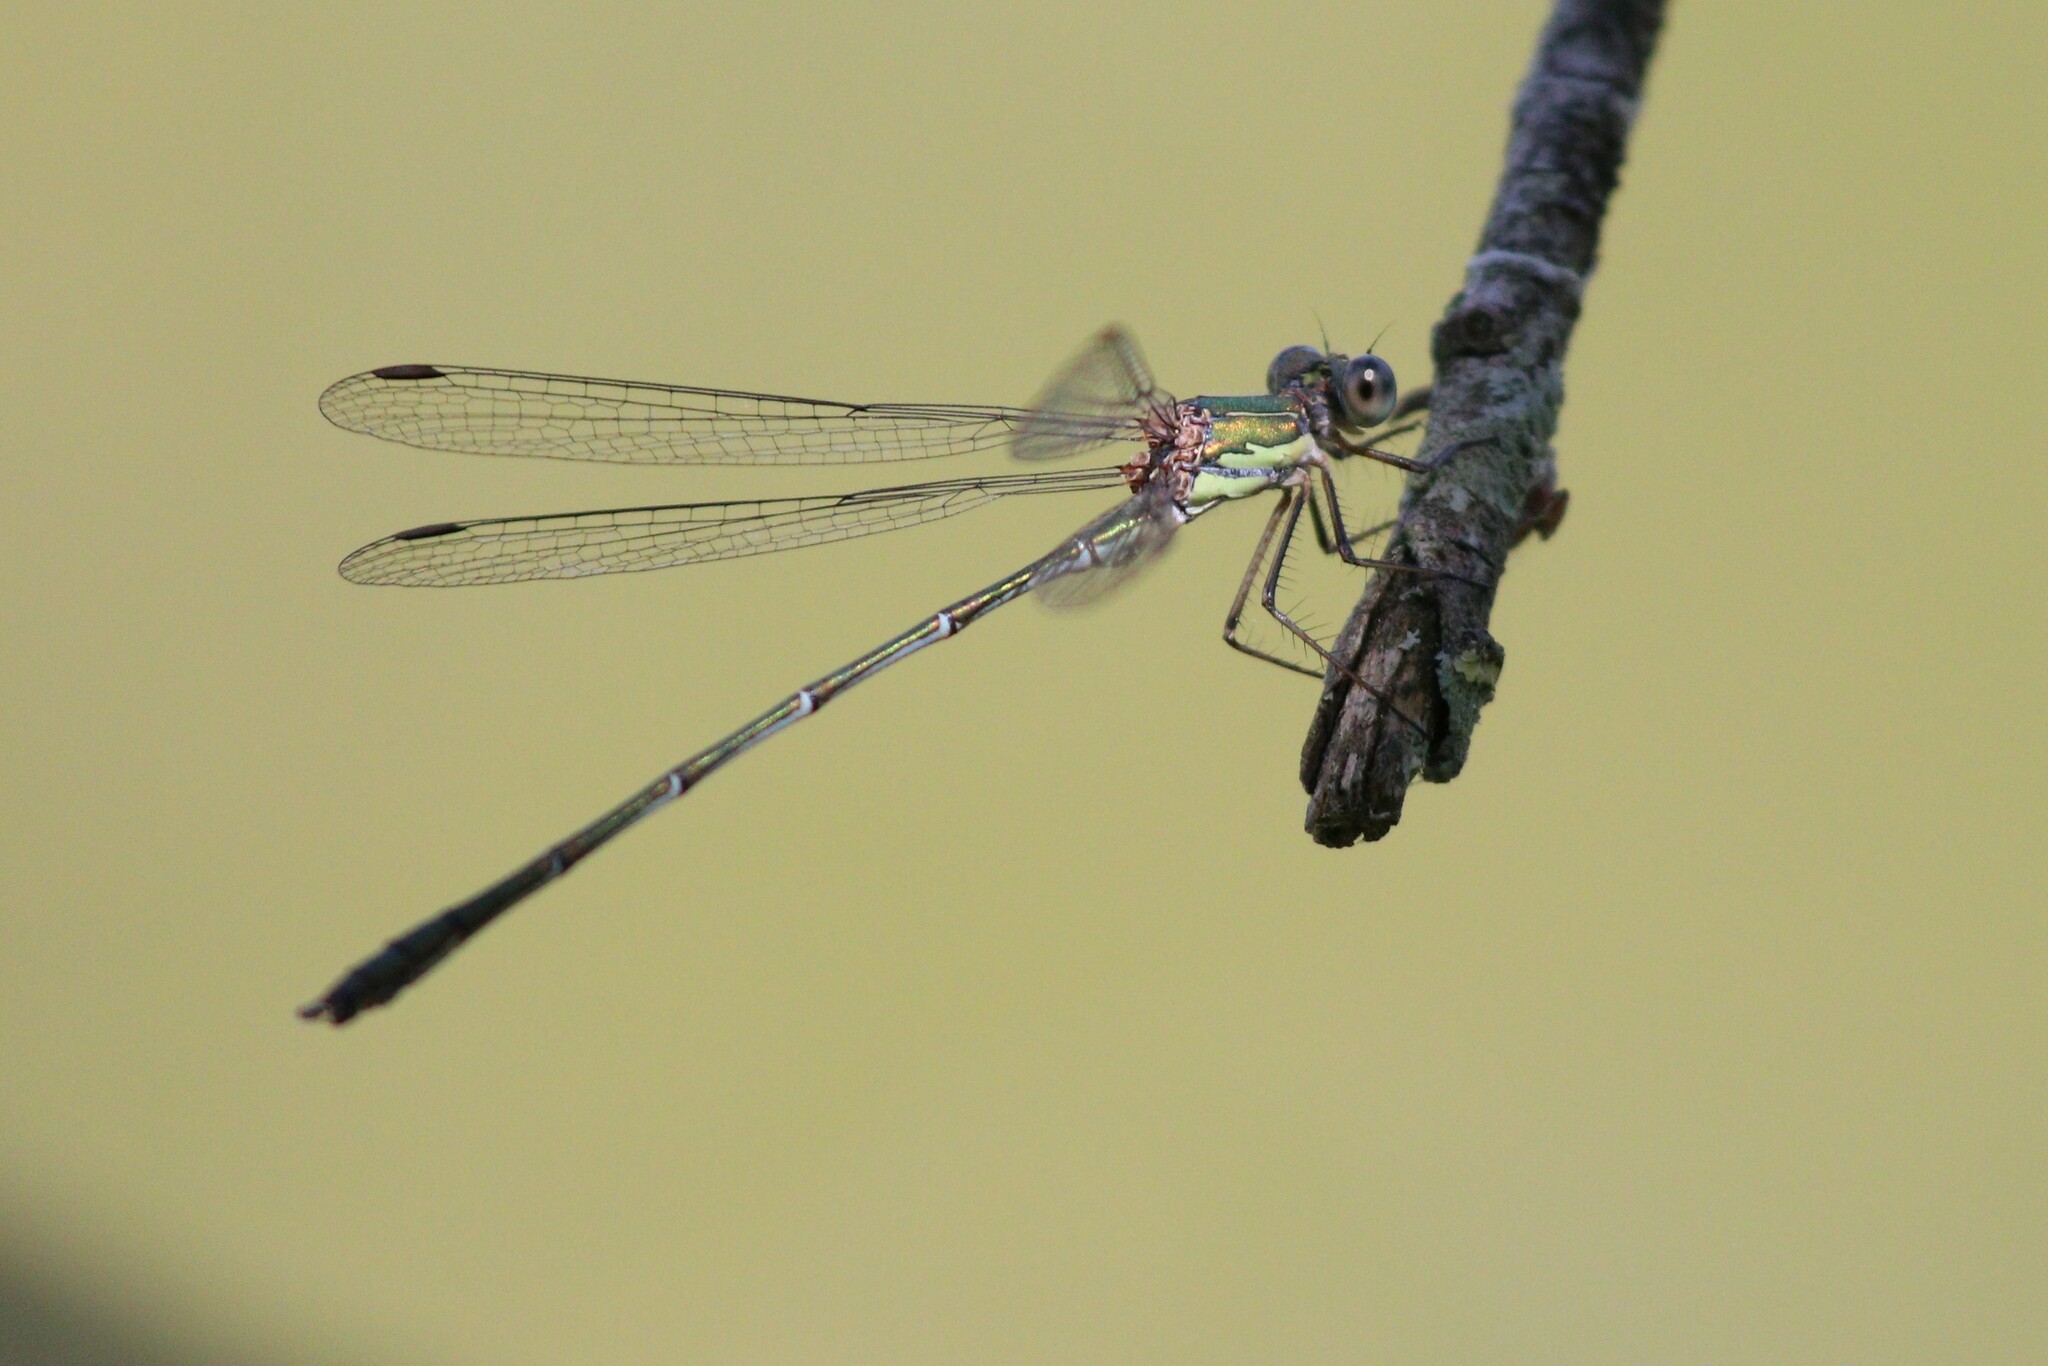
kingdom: Animalia
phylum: Arthropoda
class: Insecta
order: Odonata
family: Lestidae
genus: Chalcolestes
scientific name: Chalcolestes viridis
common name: Green emerald damselfly
